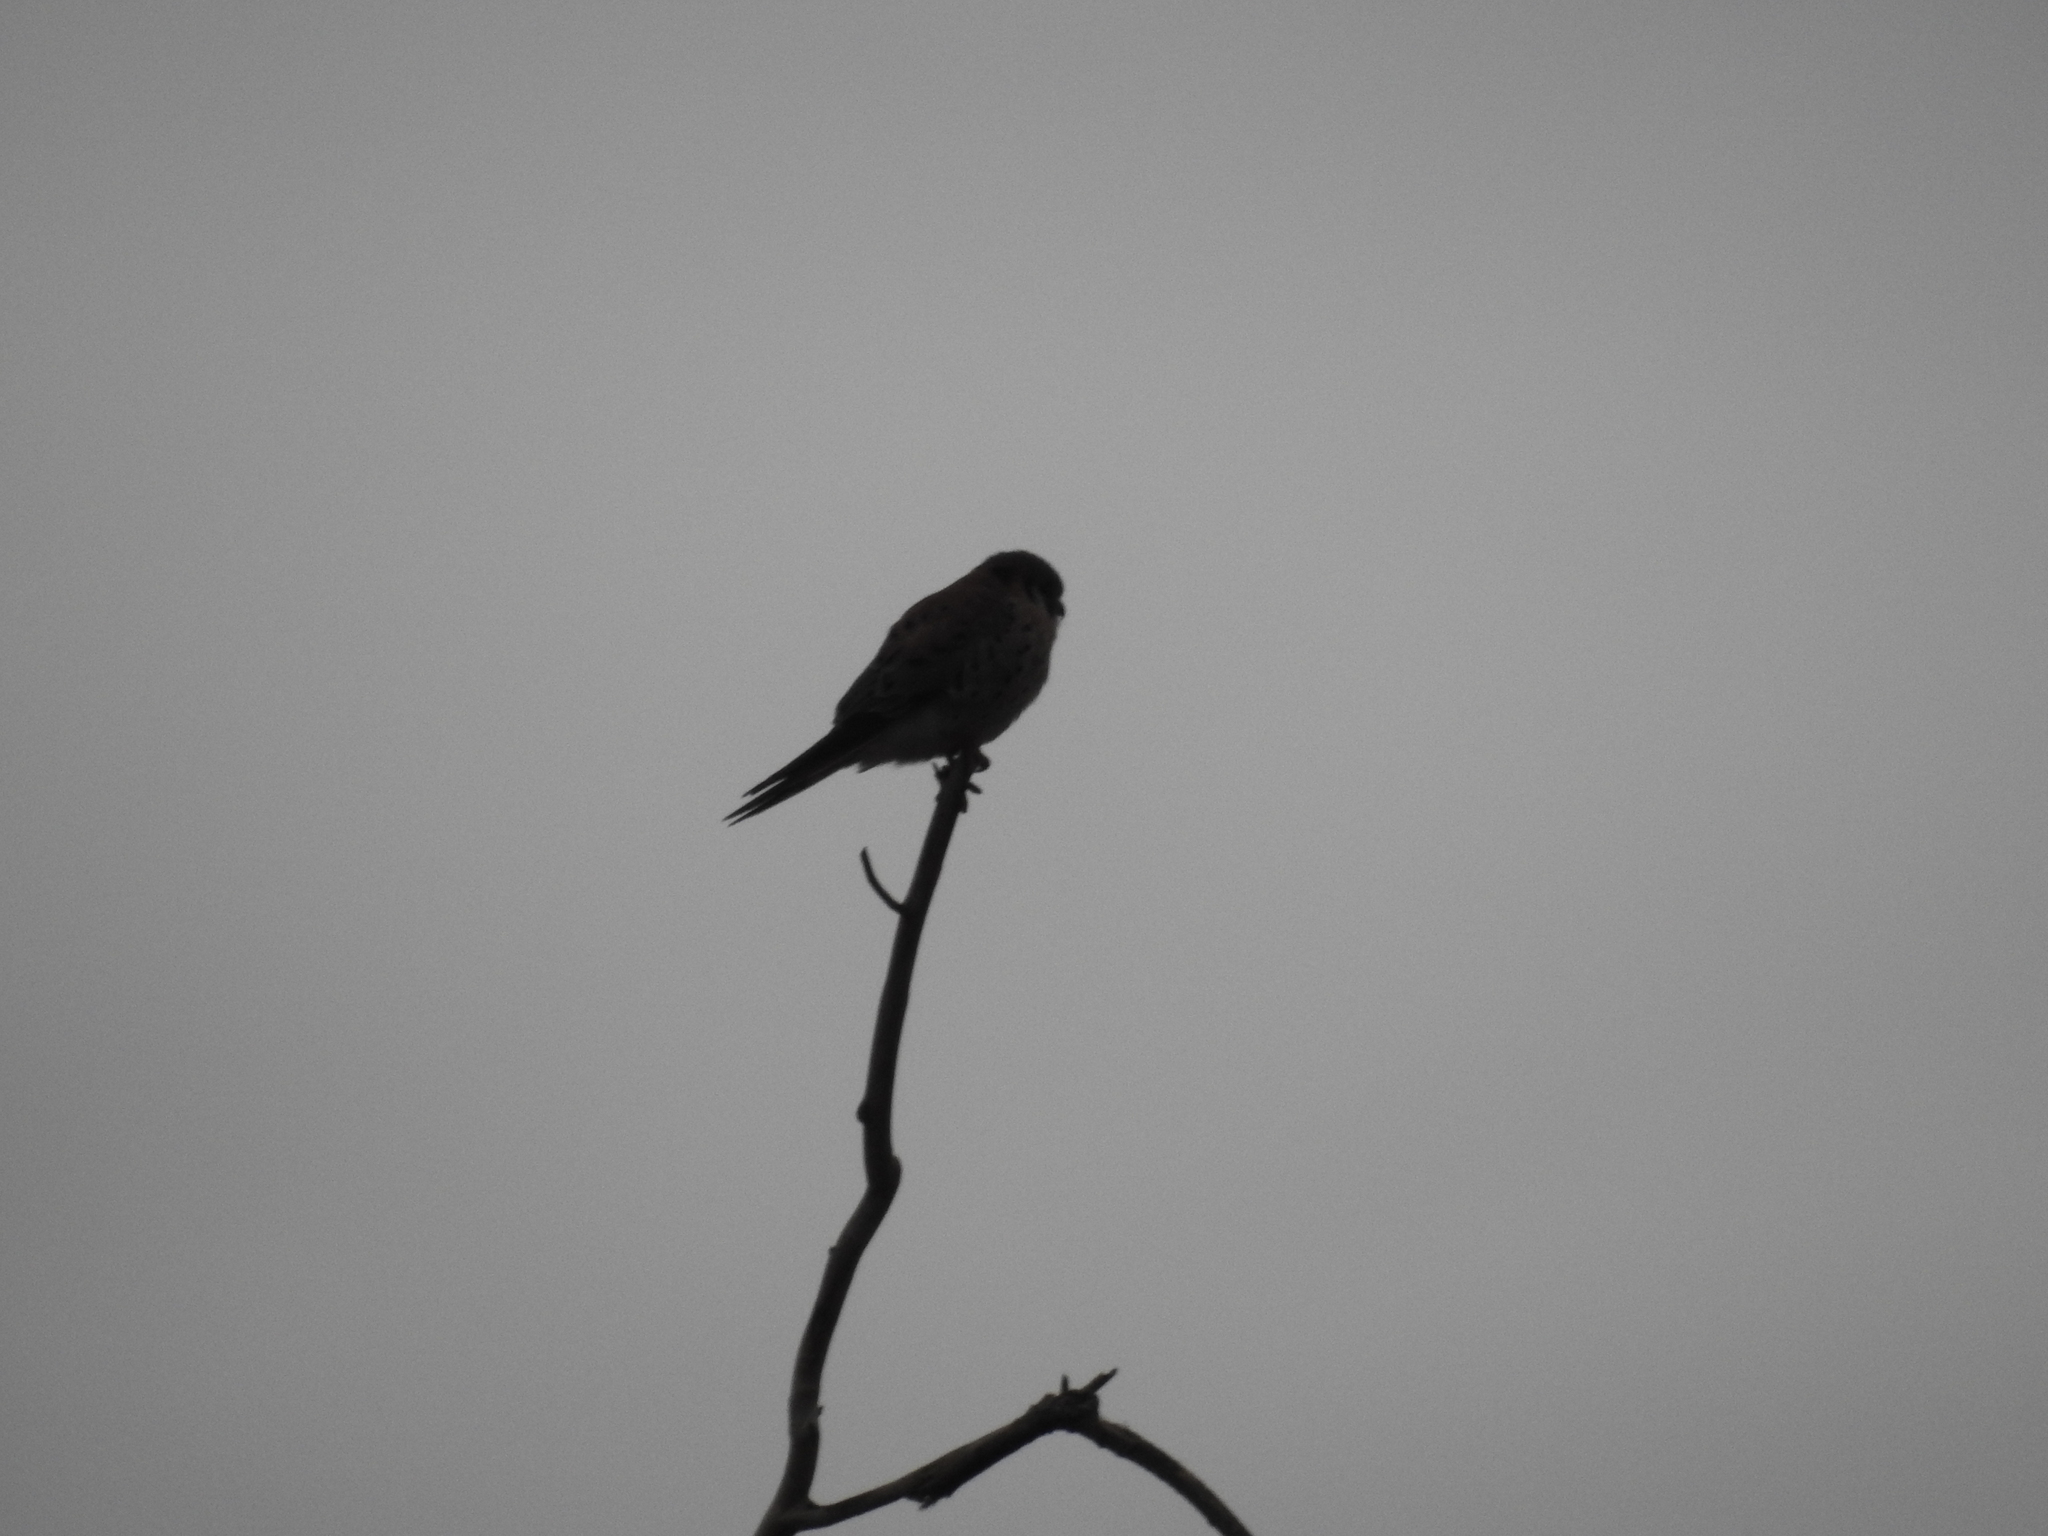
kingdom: Animalia
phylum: Chordata
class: Aves
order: Falconiformes
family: Falconidae
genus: Falco
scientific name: Falco sparverius
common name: American kestrel
